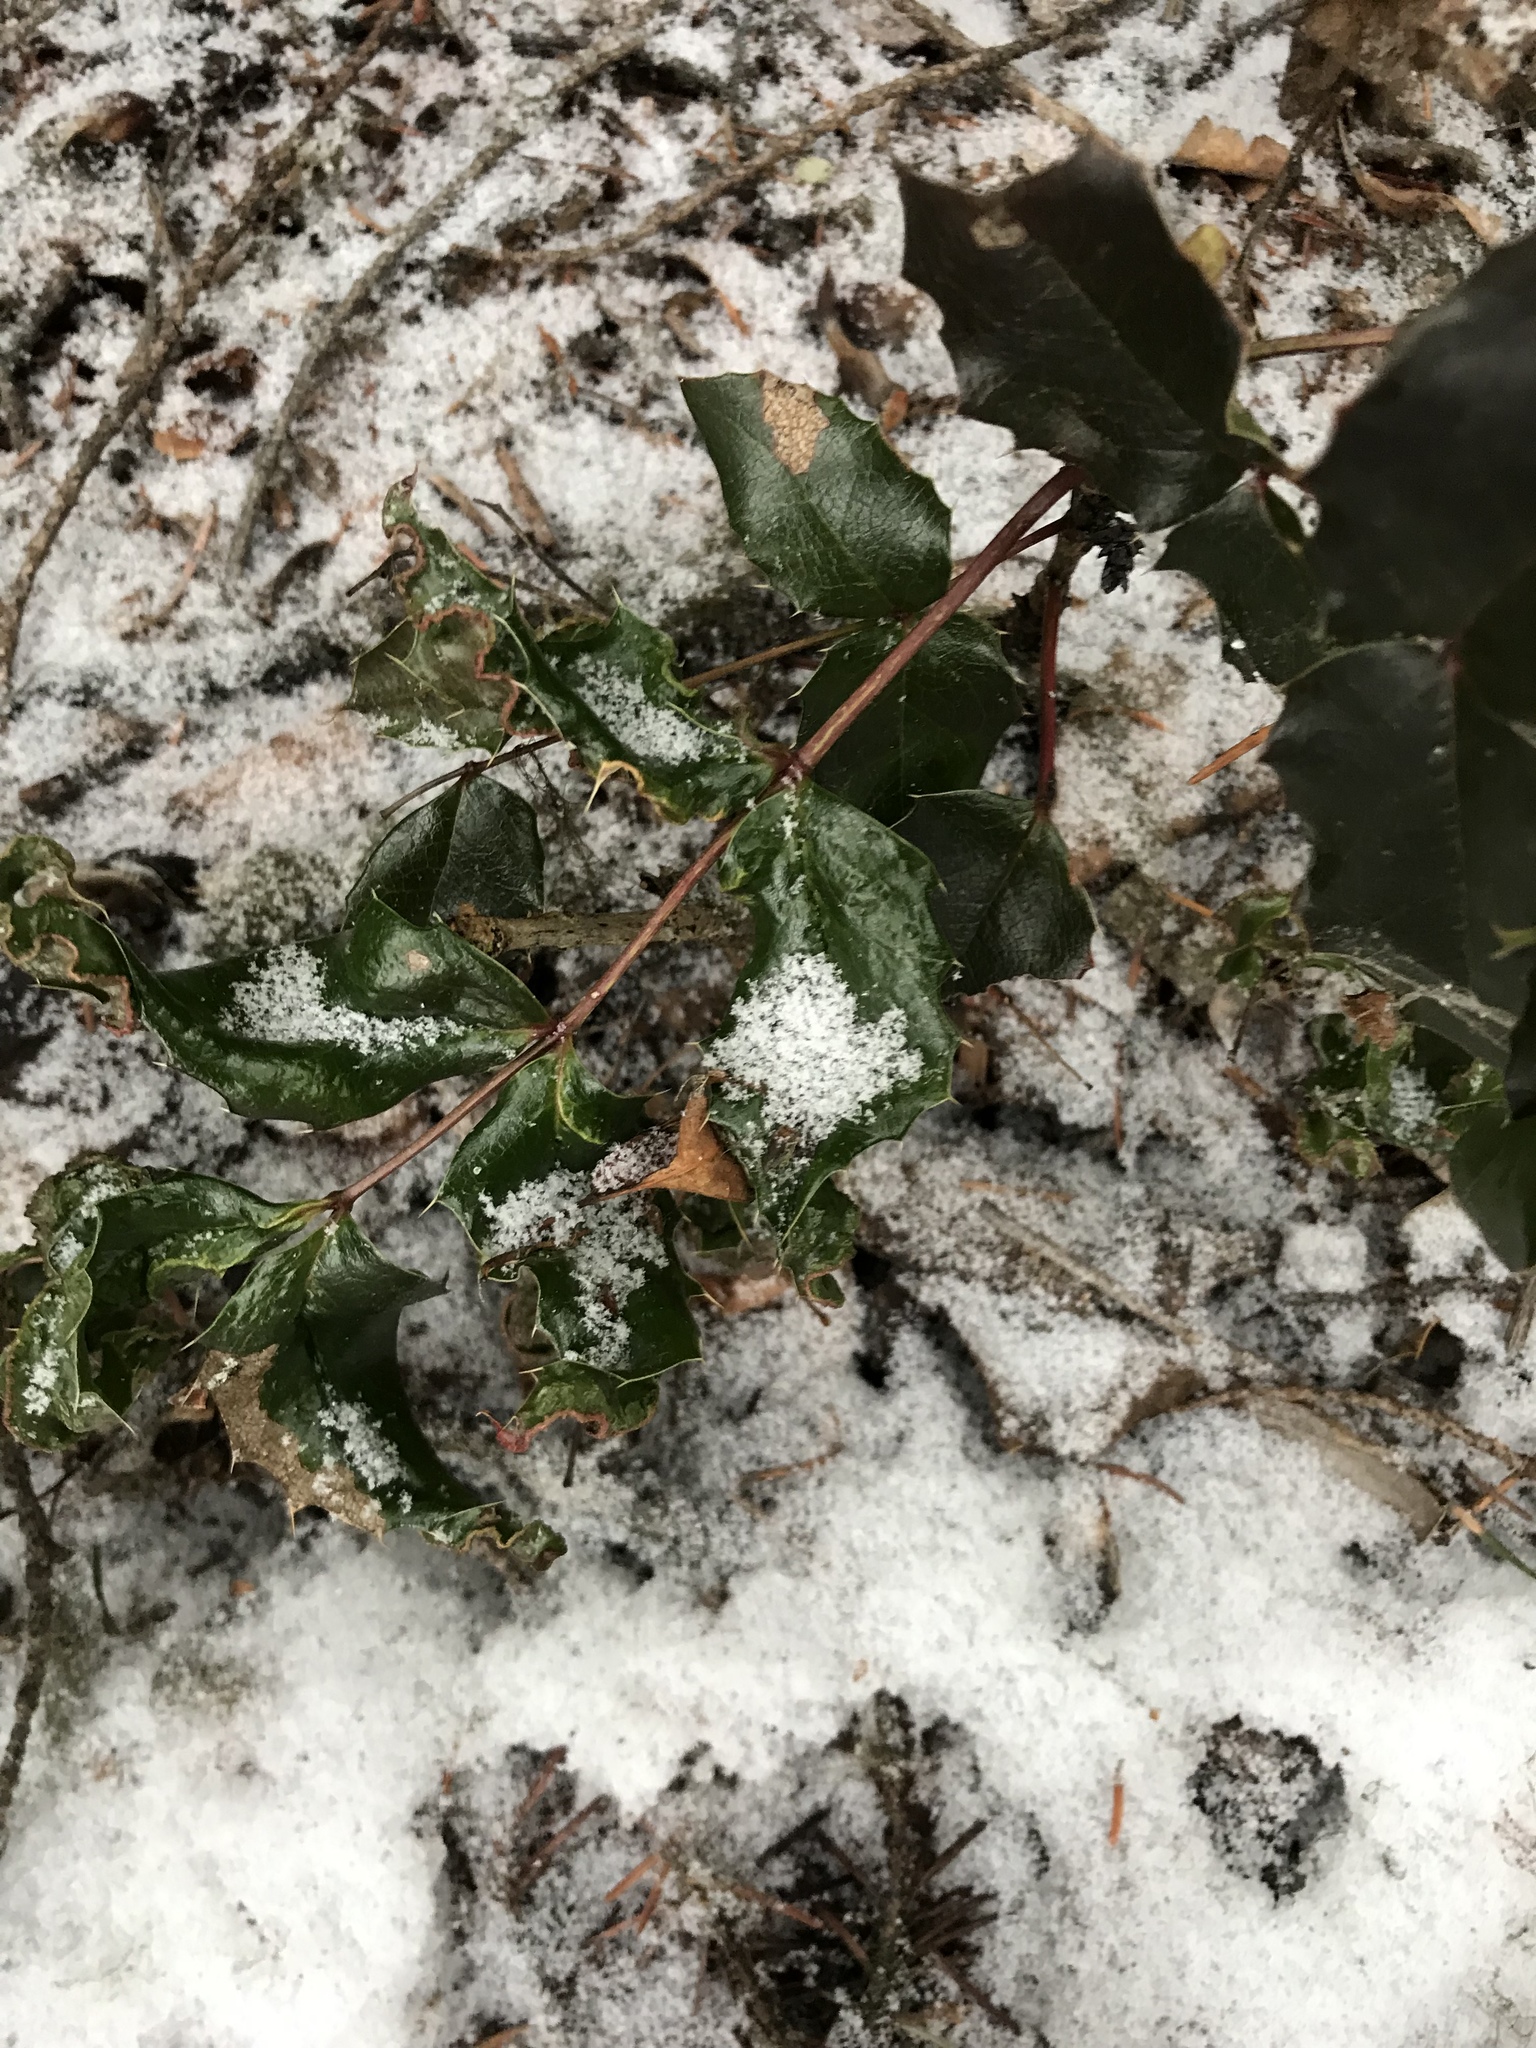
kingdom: Plantae
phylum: Tracheophyta
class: Magnoliopsida
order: Ranunculales
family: Berberidaceae
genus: Mahonia
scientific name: Mahonia aquifolium
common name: Oregon-grape
